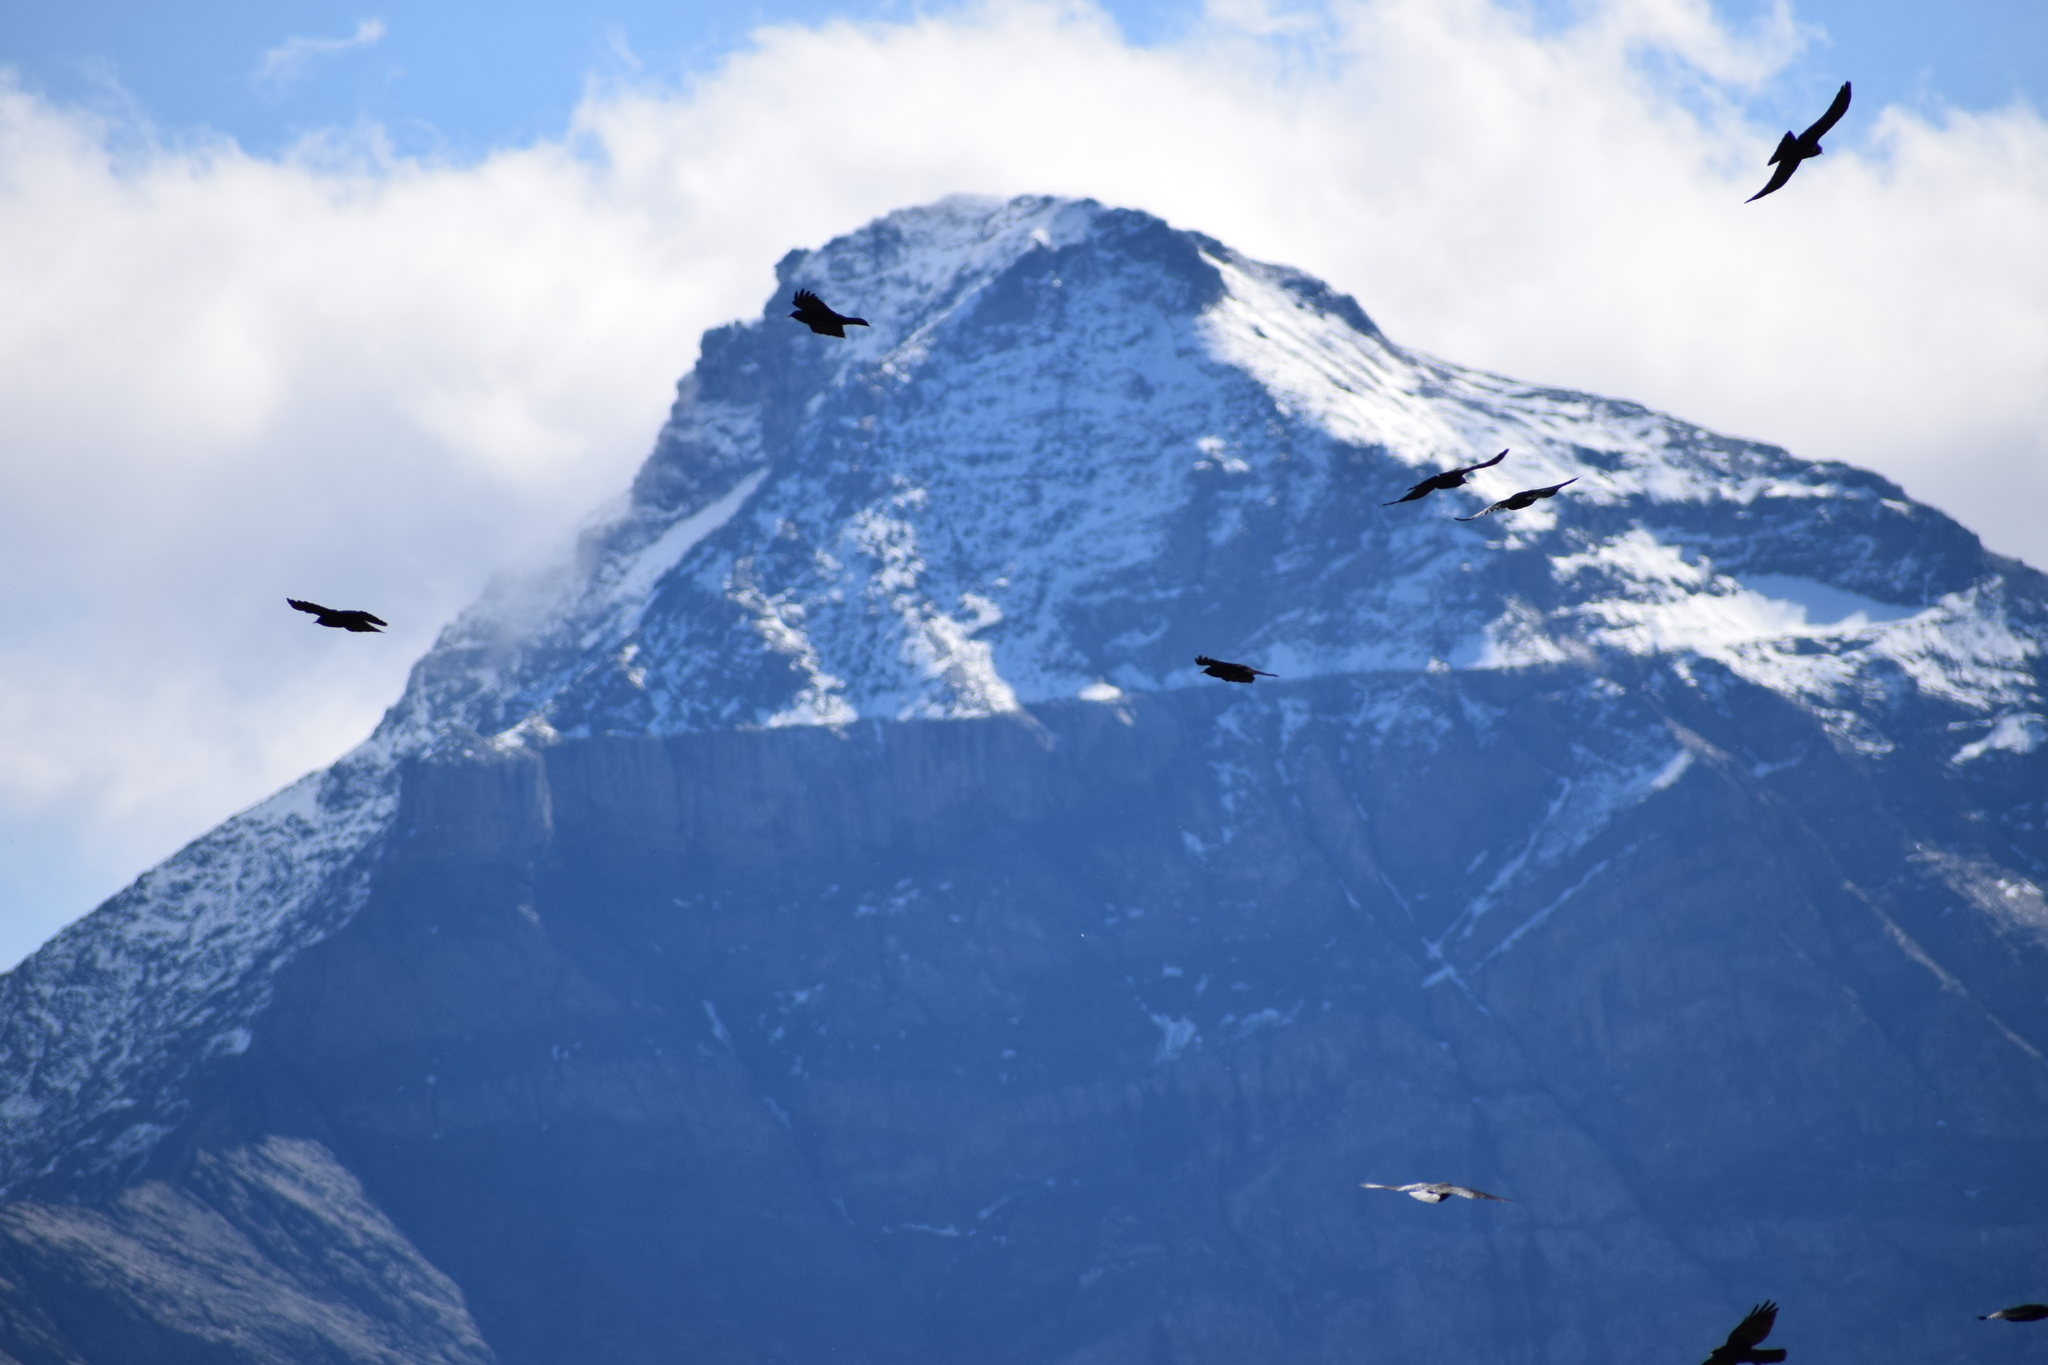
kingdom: Animalia
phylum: Chordata
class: Aves
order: Passeriformes
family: Corvidae
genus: Pyrrhocorax
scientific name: Pyrrhocorax graculus
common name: Alpine chough
